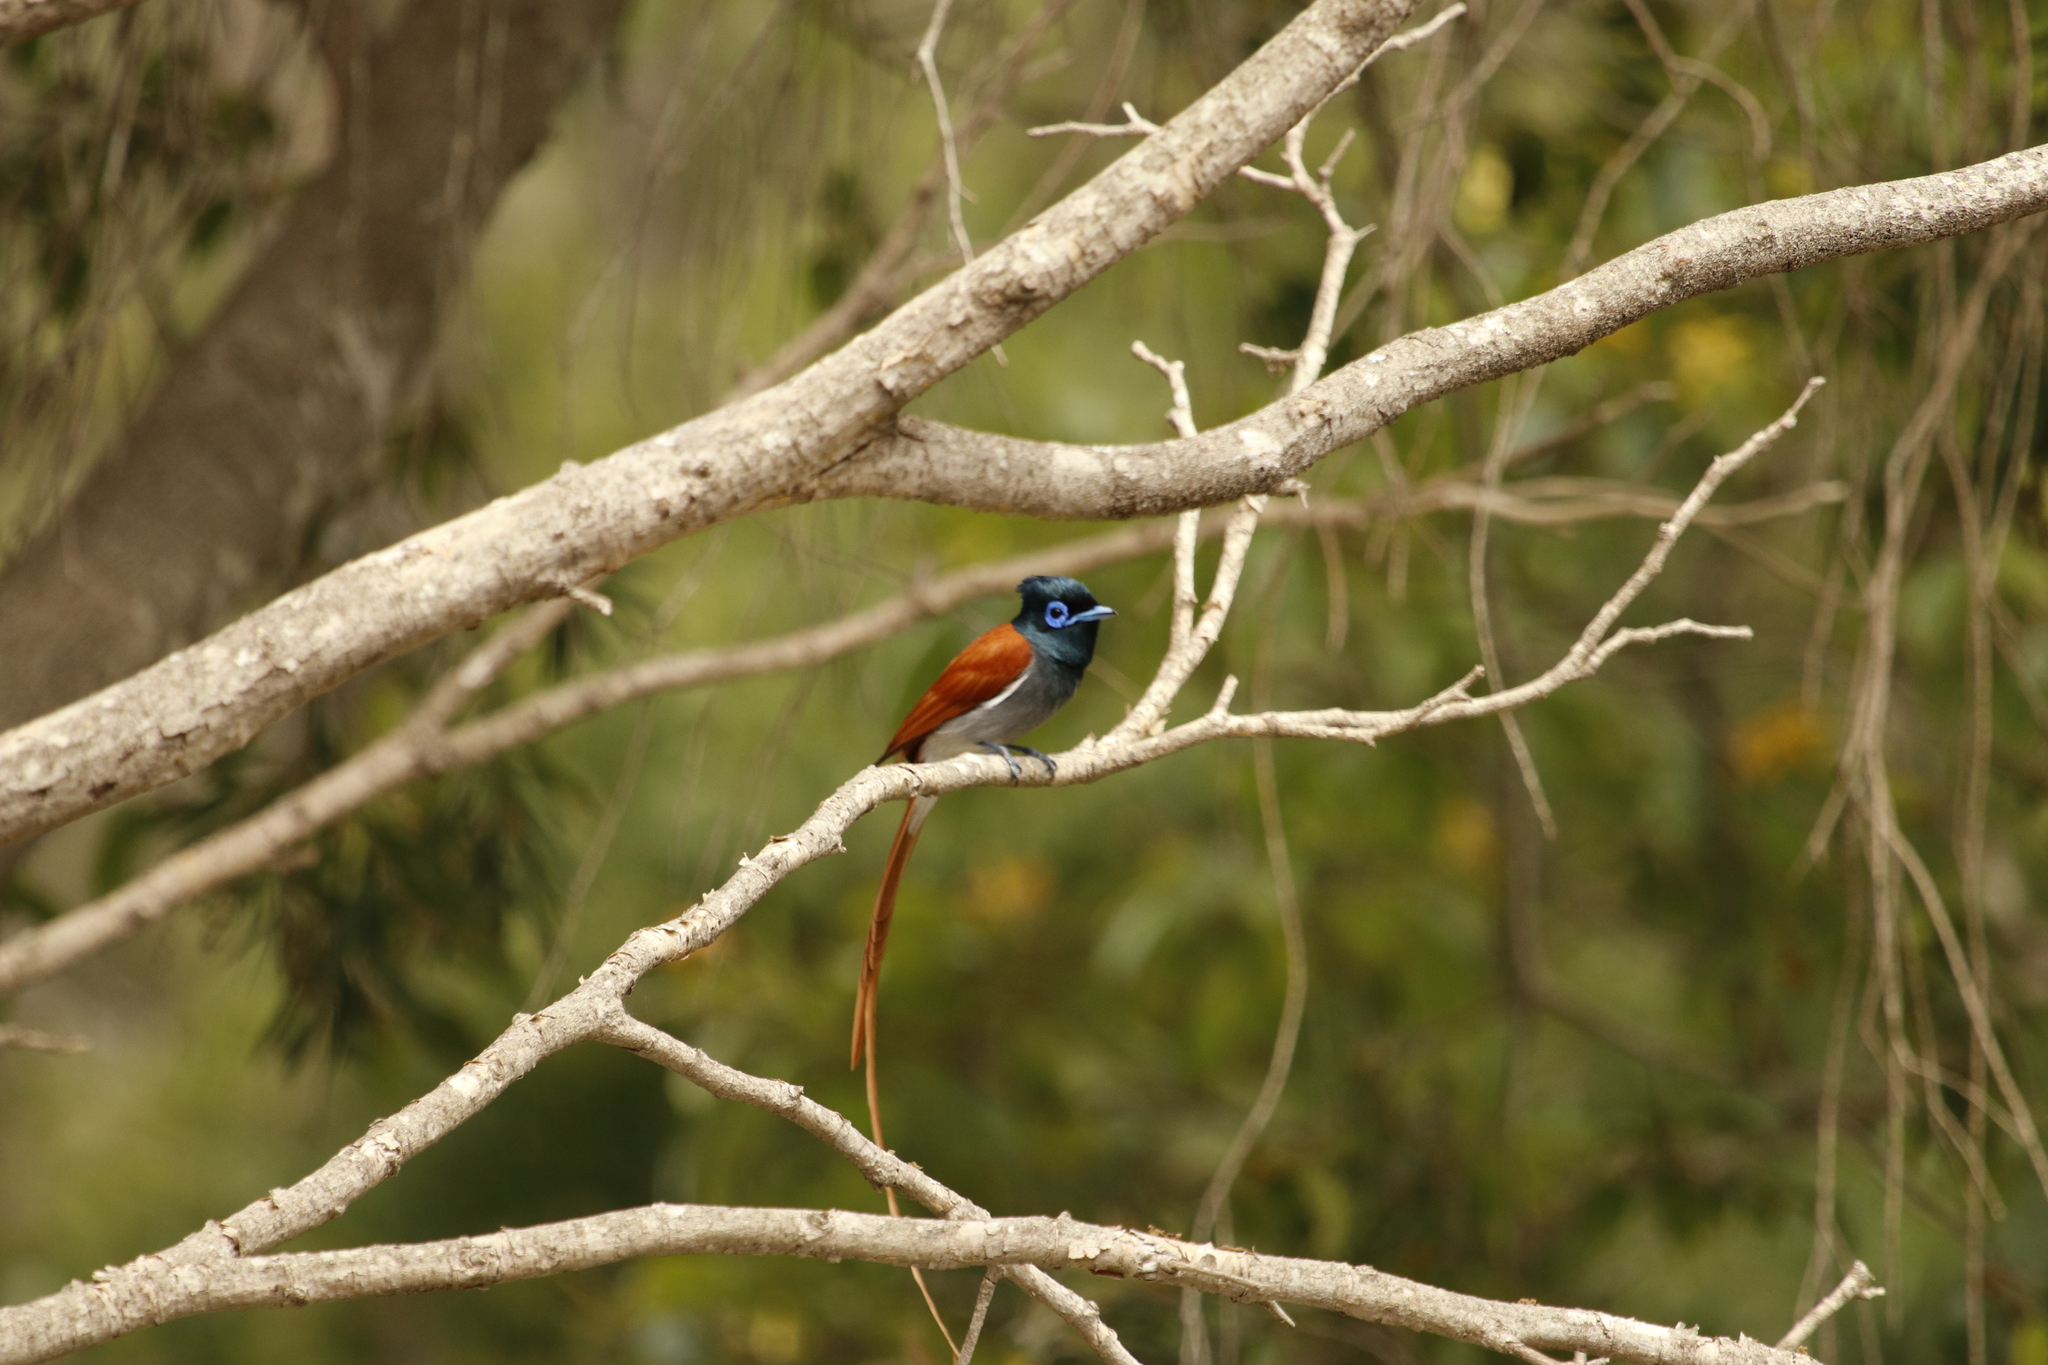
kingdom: Animalia
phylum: Chordata
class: Aves
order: Passeriformes
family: Monarchidae
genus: Terpsiphone
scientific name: Terpsiphone viridis
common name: African paradise flycatcher
